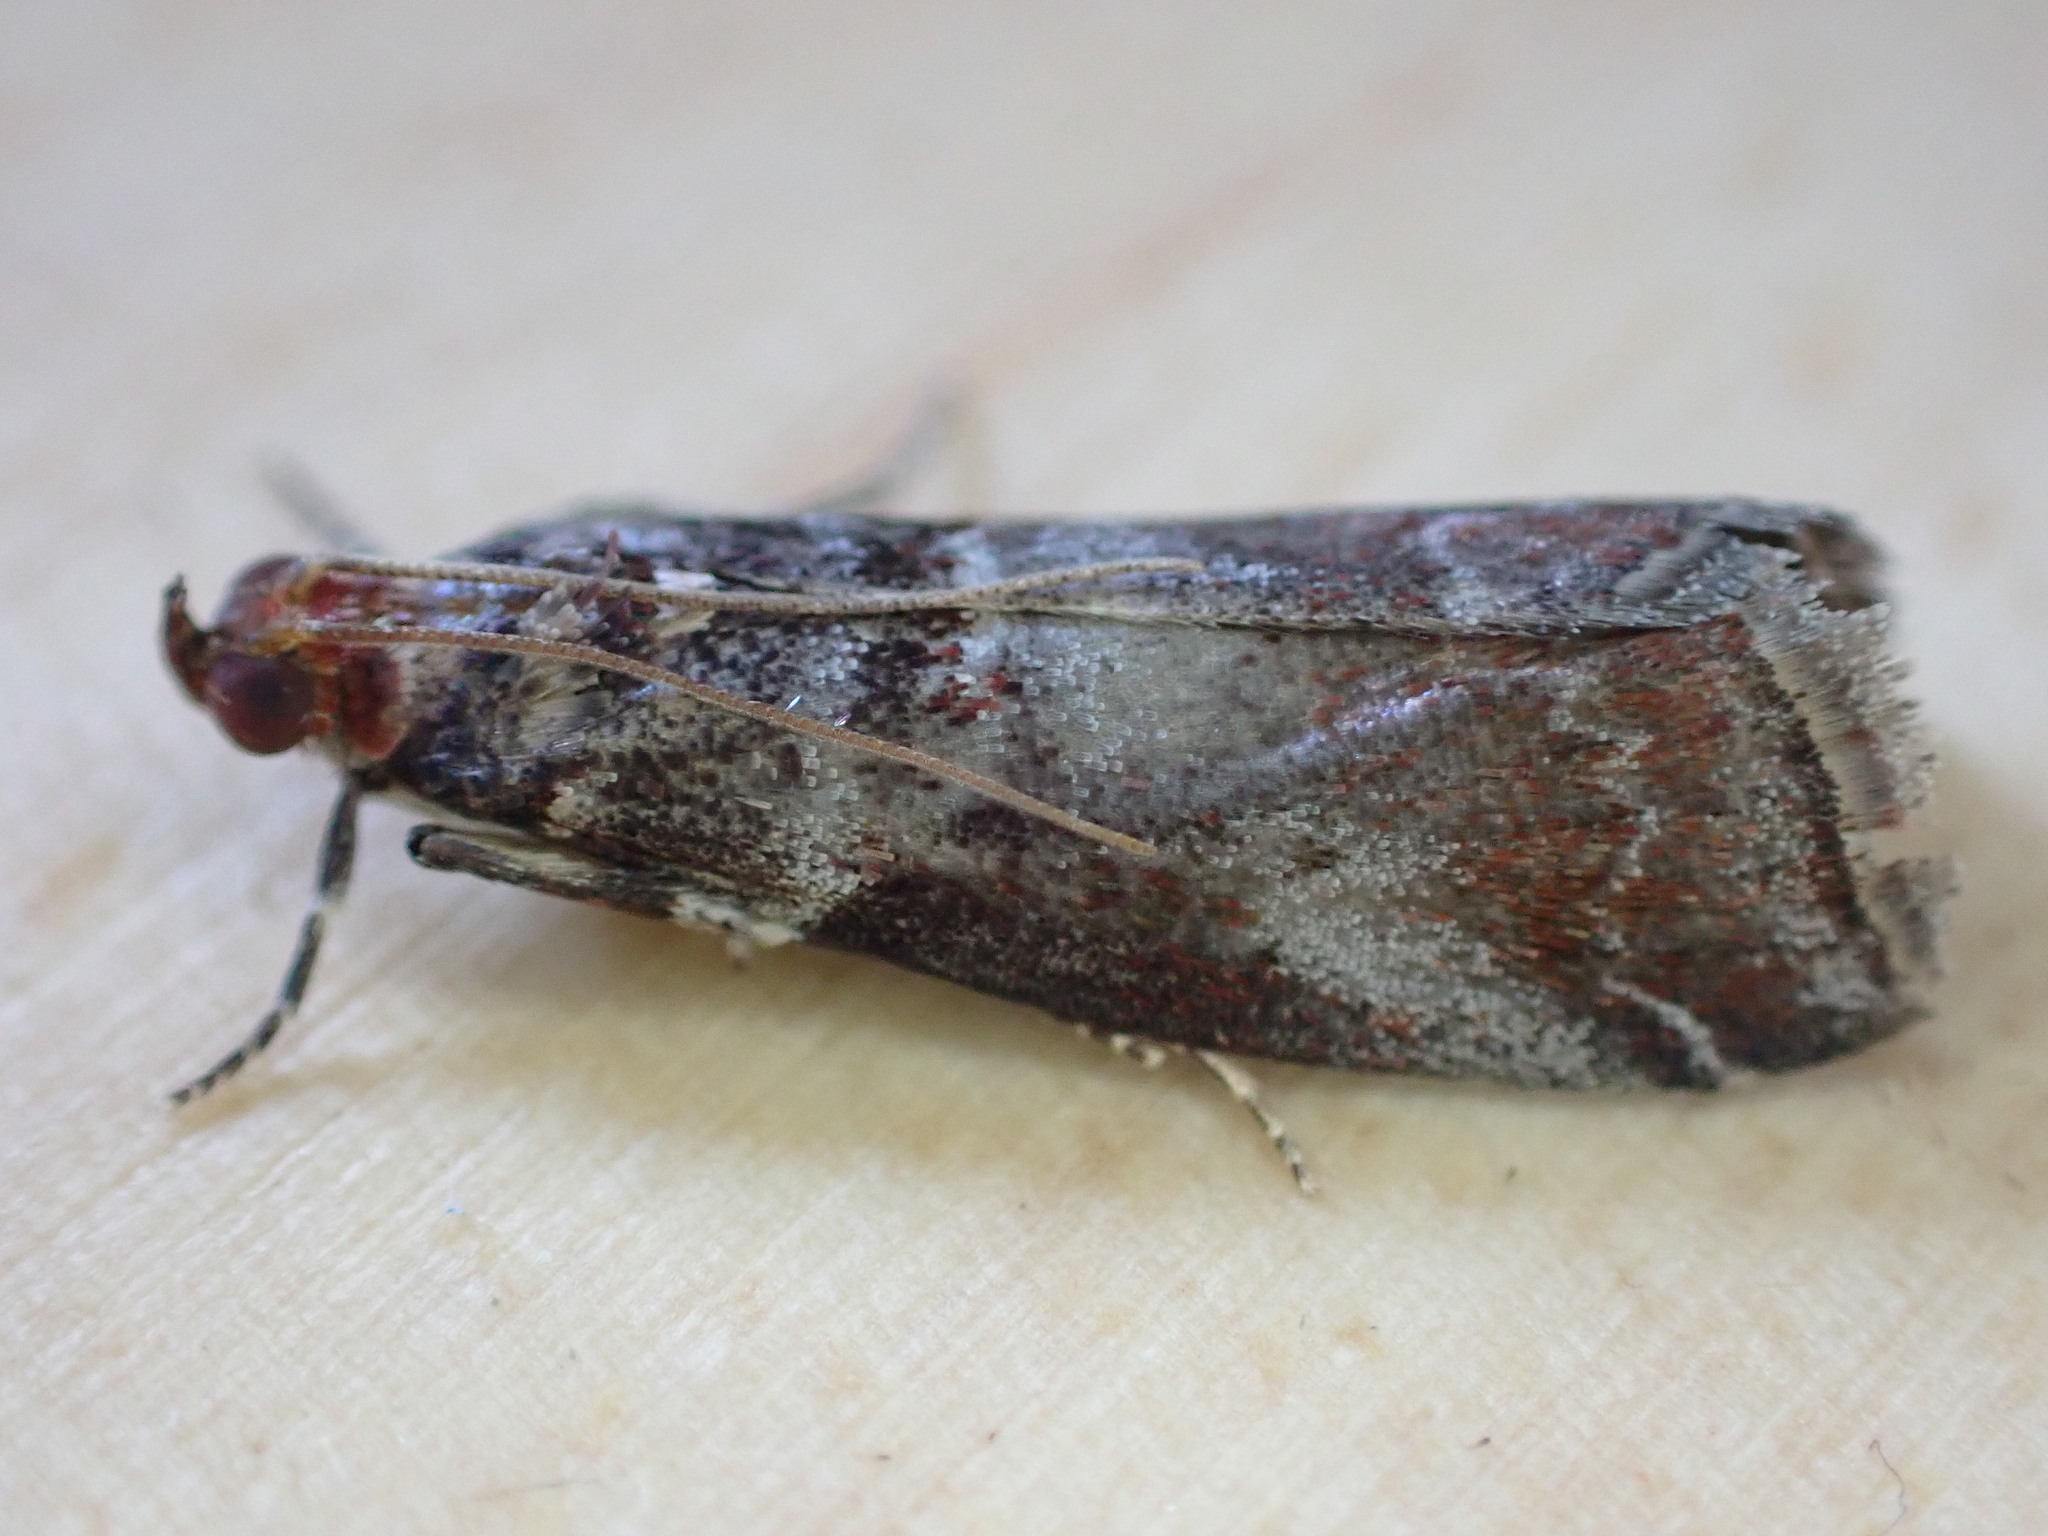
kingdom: Animalia
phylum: Arthropoda
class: Insecta
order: Lepidoptera
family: Pyralidae
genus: Acrobasis
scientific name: Acrobasis advenella
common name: Grey knot-horn
